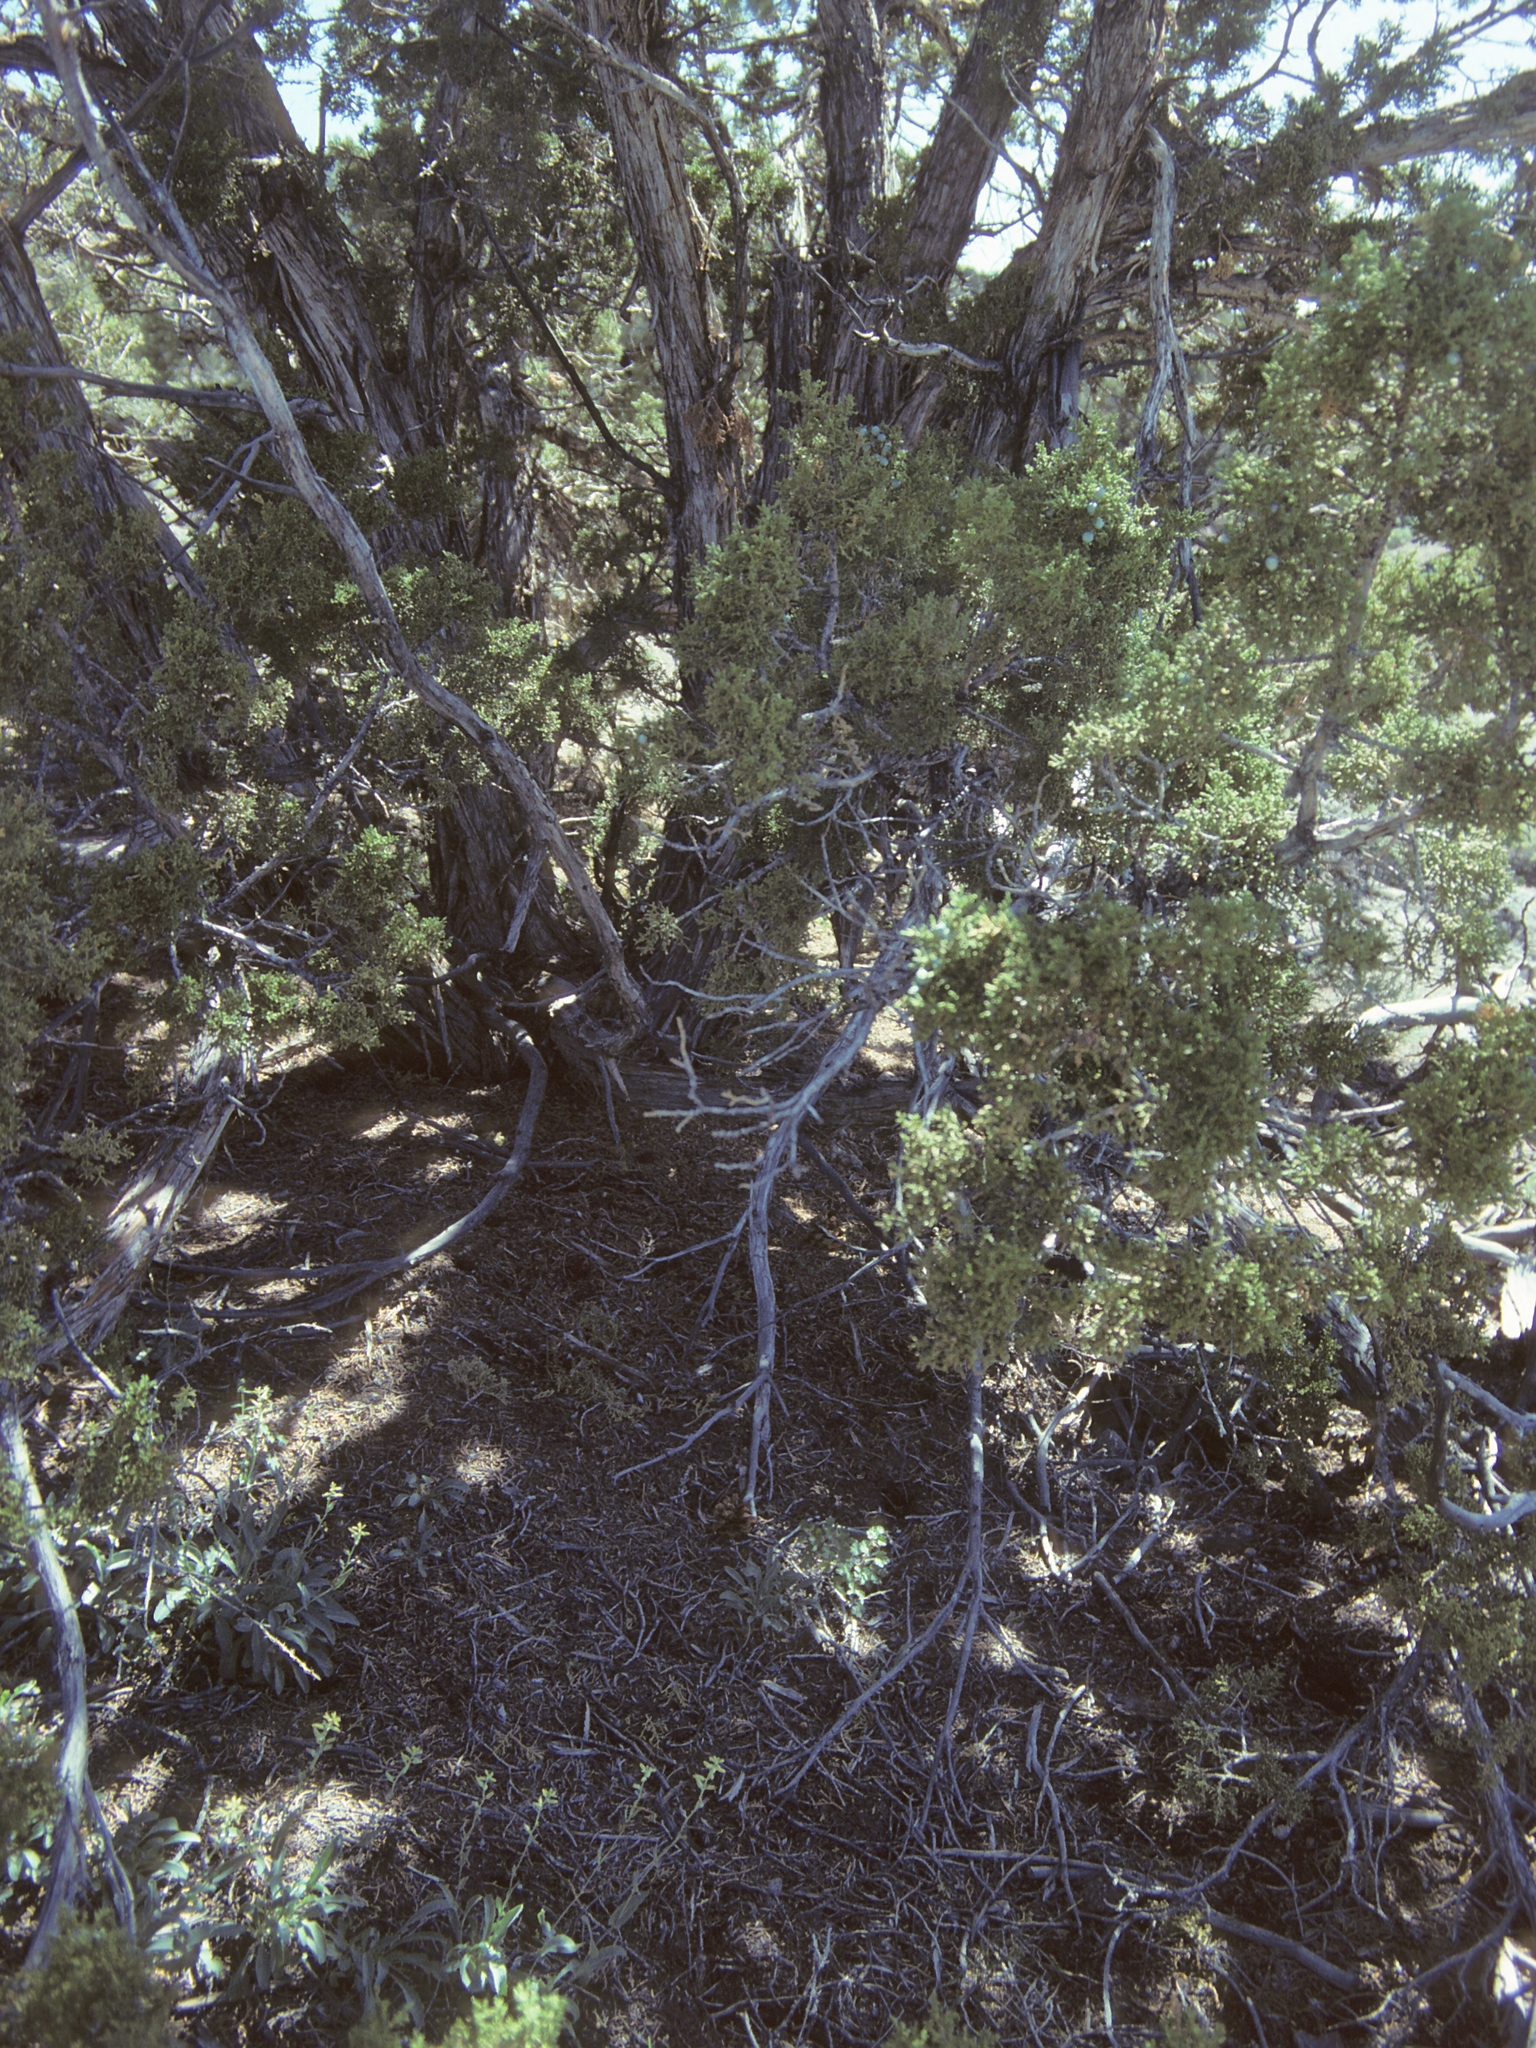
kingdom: Plantae
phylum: Tracheophyta
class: Magnoliopsida
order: Brassicales
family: Brassicaceae
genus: Streptanthus
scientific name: Streptanthus oliganthus
